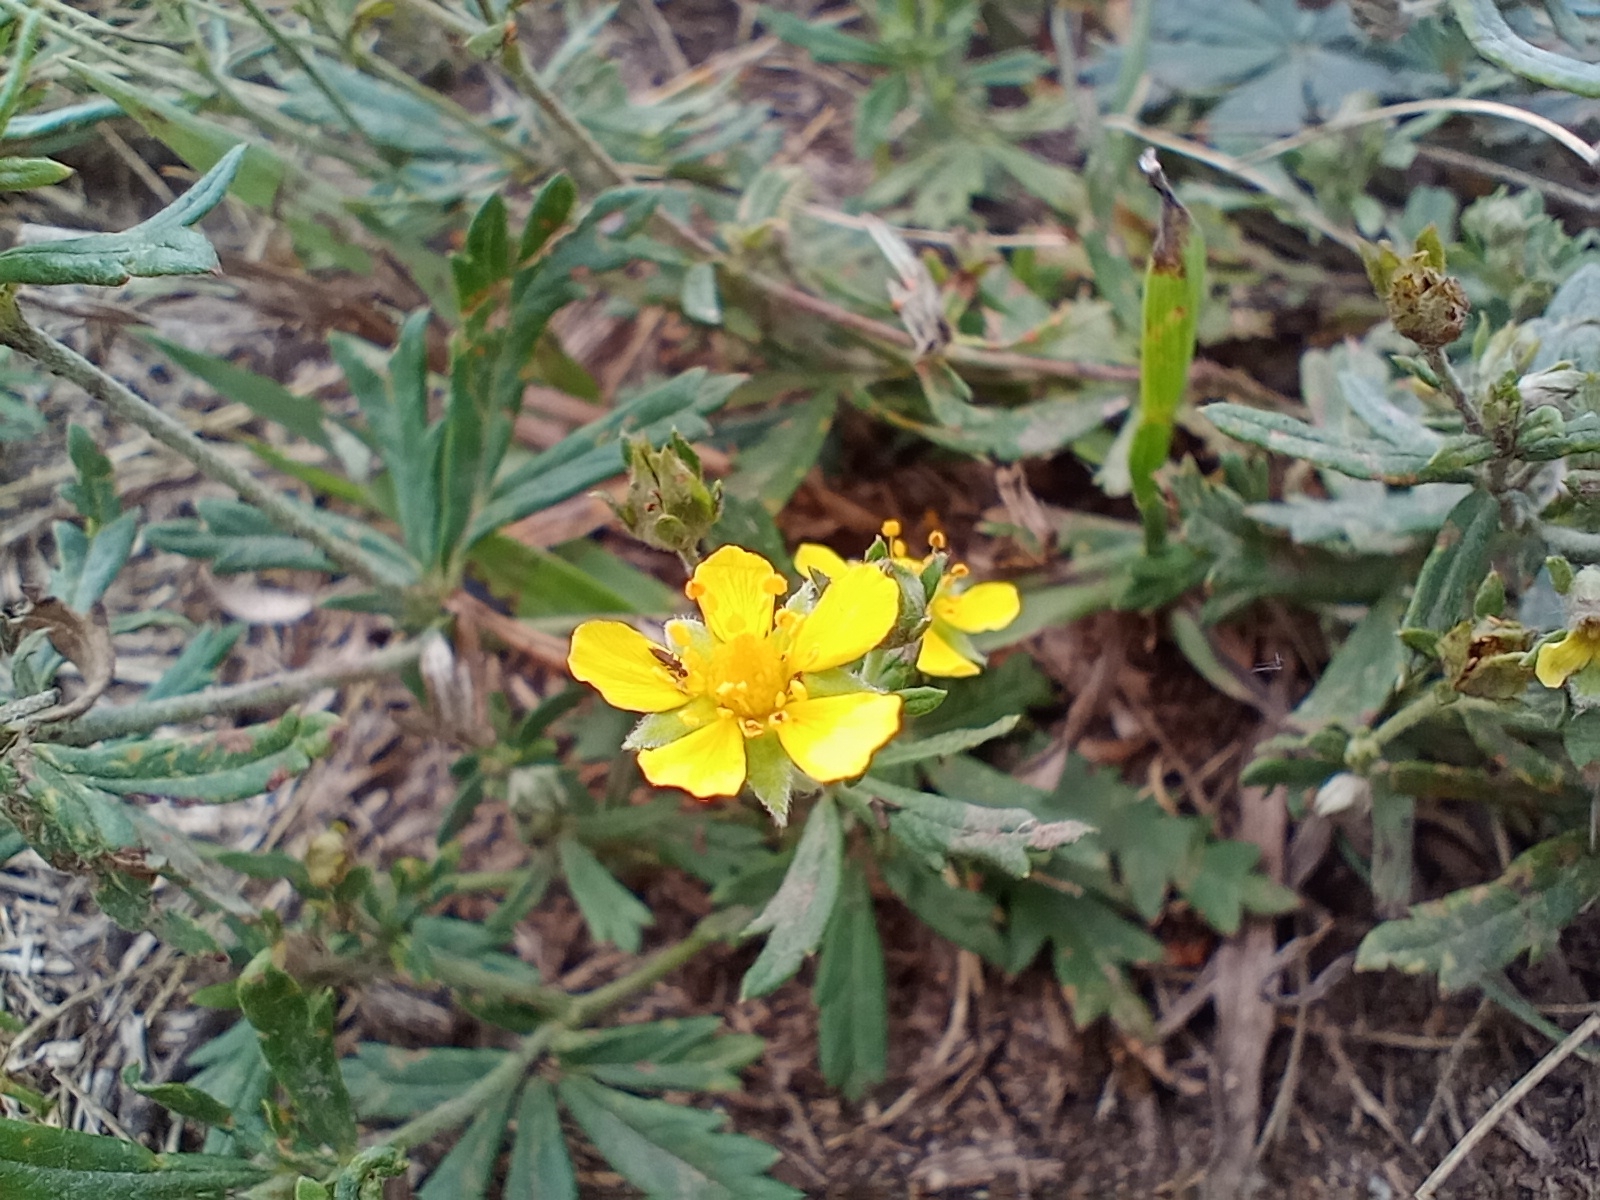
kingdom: Plantae
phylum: Tracheophyta
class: Magnoliopsida
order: Rosales
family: Rosaceae
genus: Potentilla
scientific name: Potentilla argentea
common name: Hoary cinquefoil
